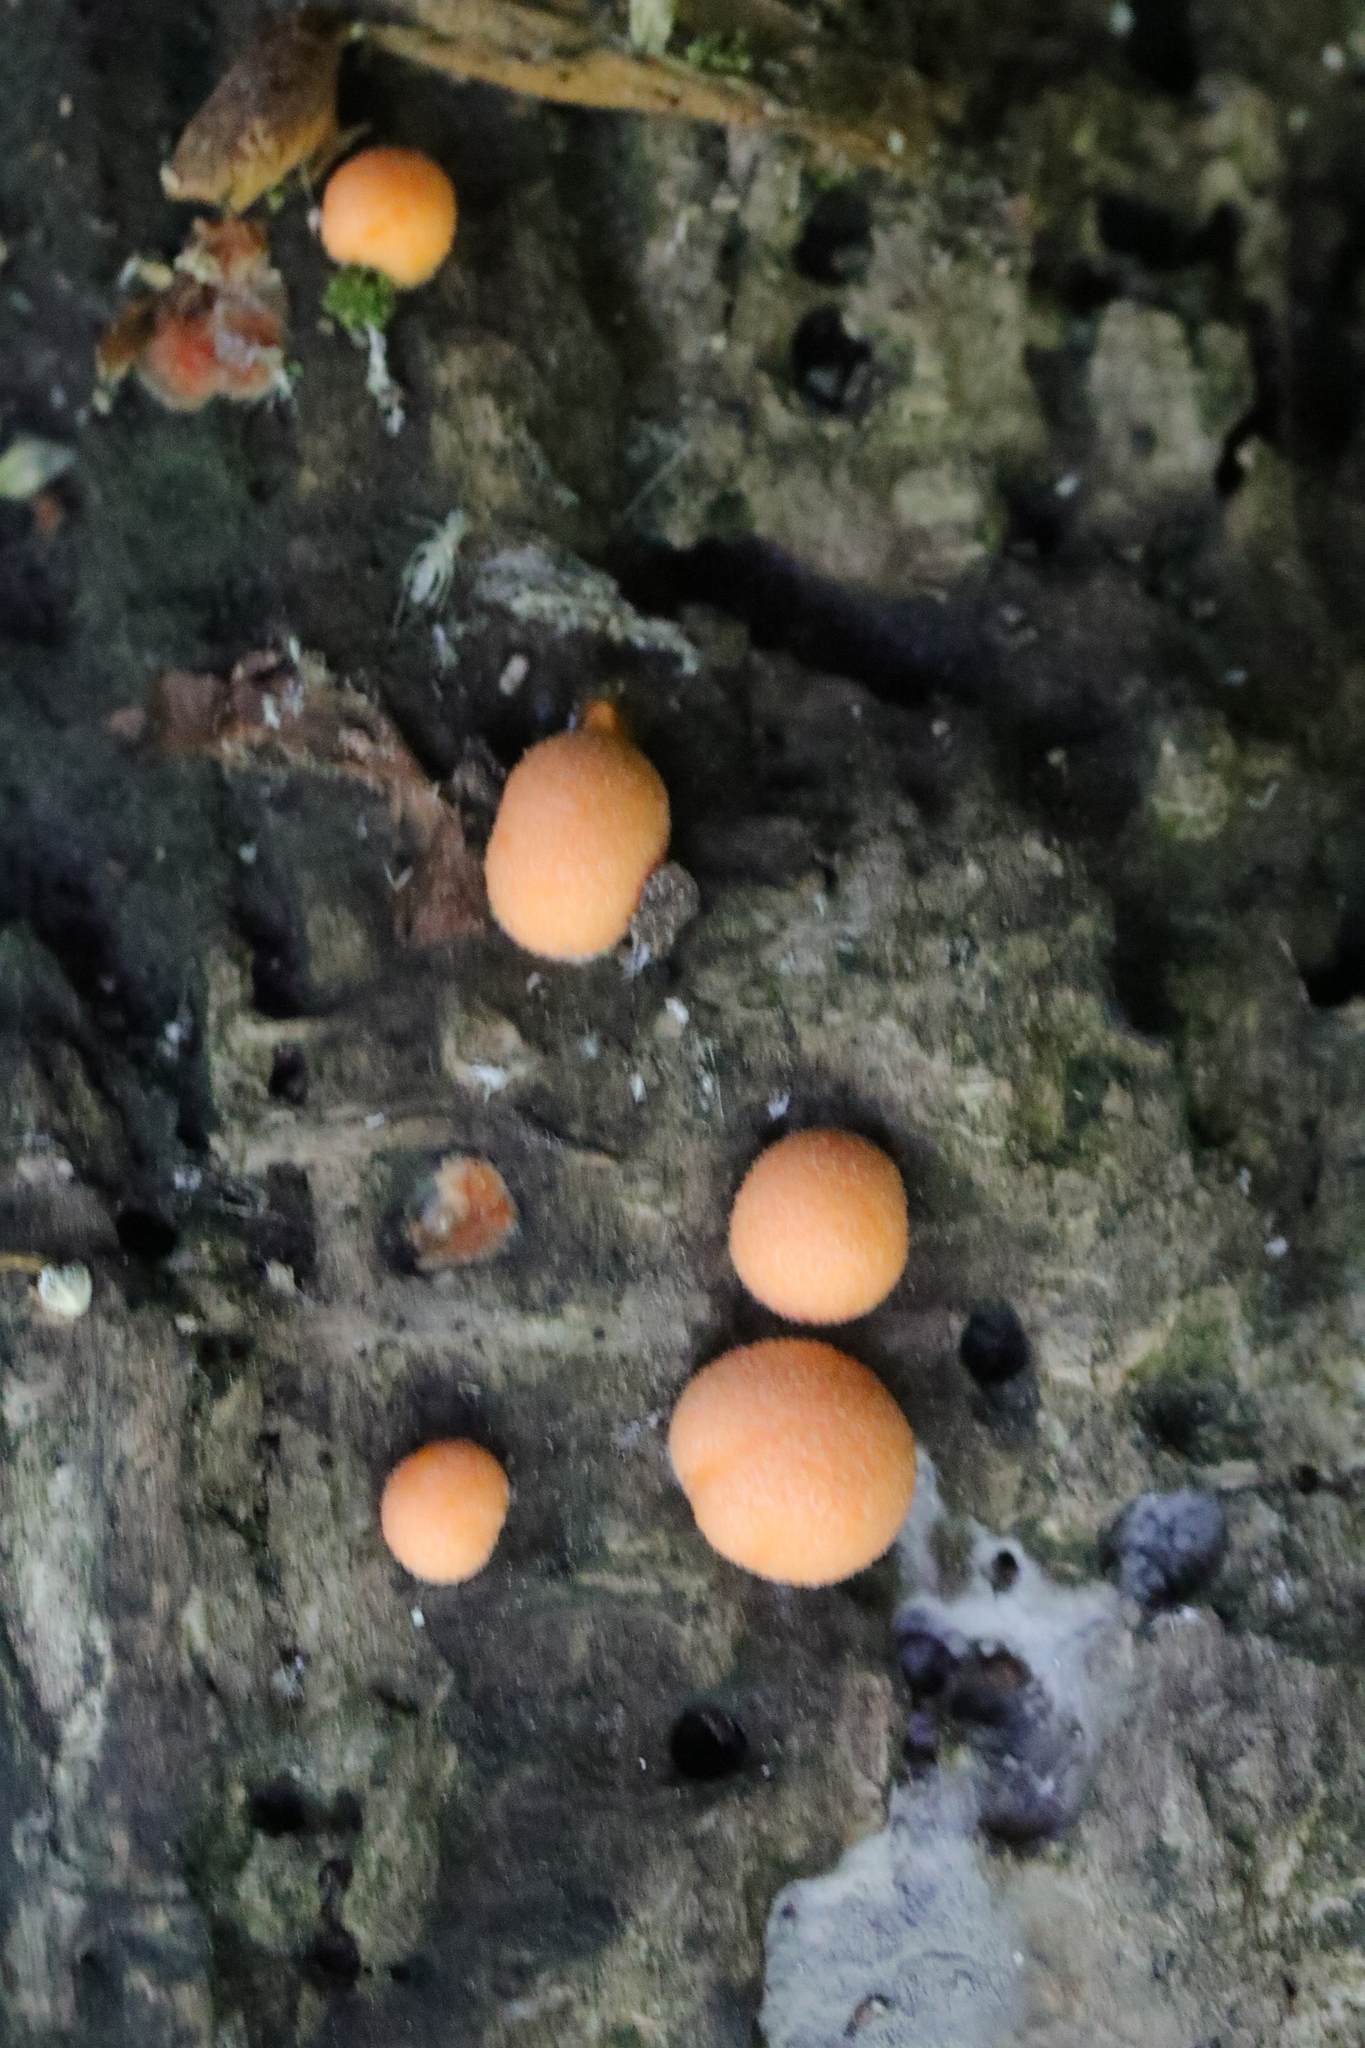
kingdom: Protozoa
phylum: Mycetozoa
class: Myxomycetes
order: Cribrariales
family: Tubiferaceae
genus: Lycogala
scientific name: Lycogala epidendrum
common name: Wolf's milk
